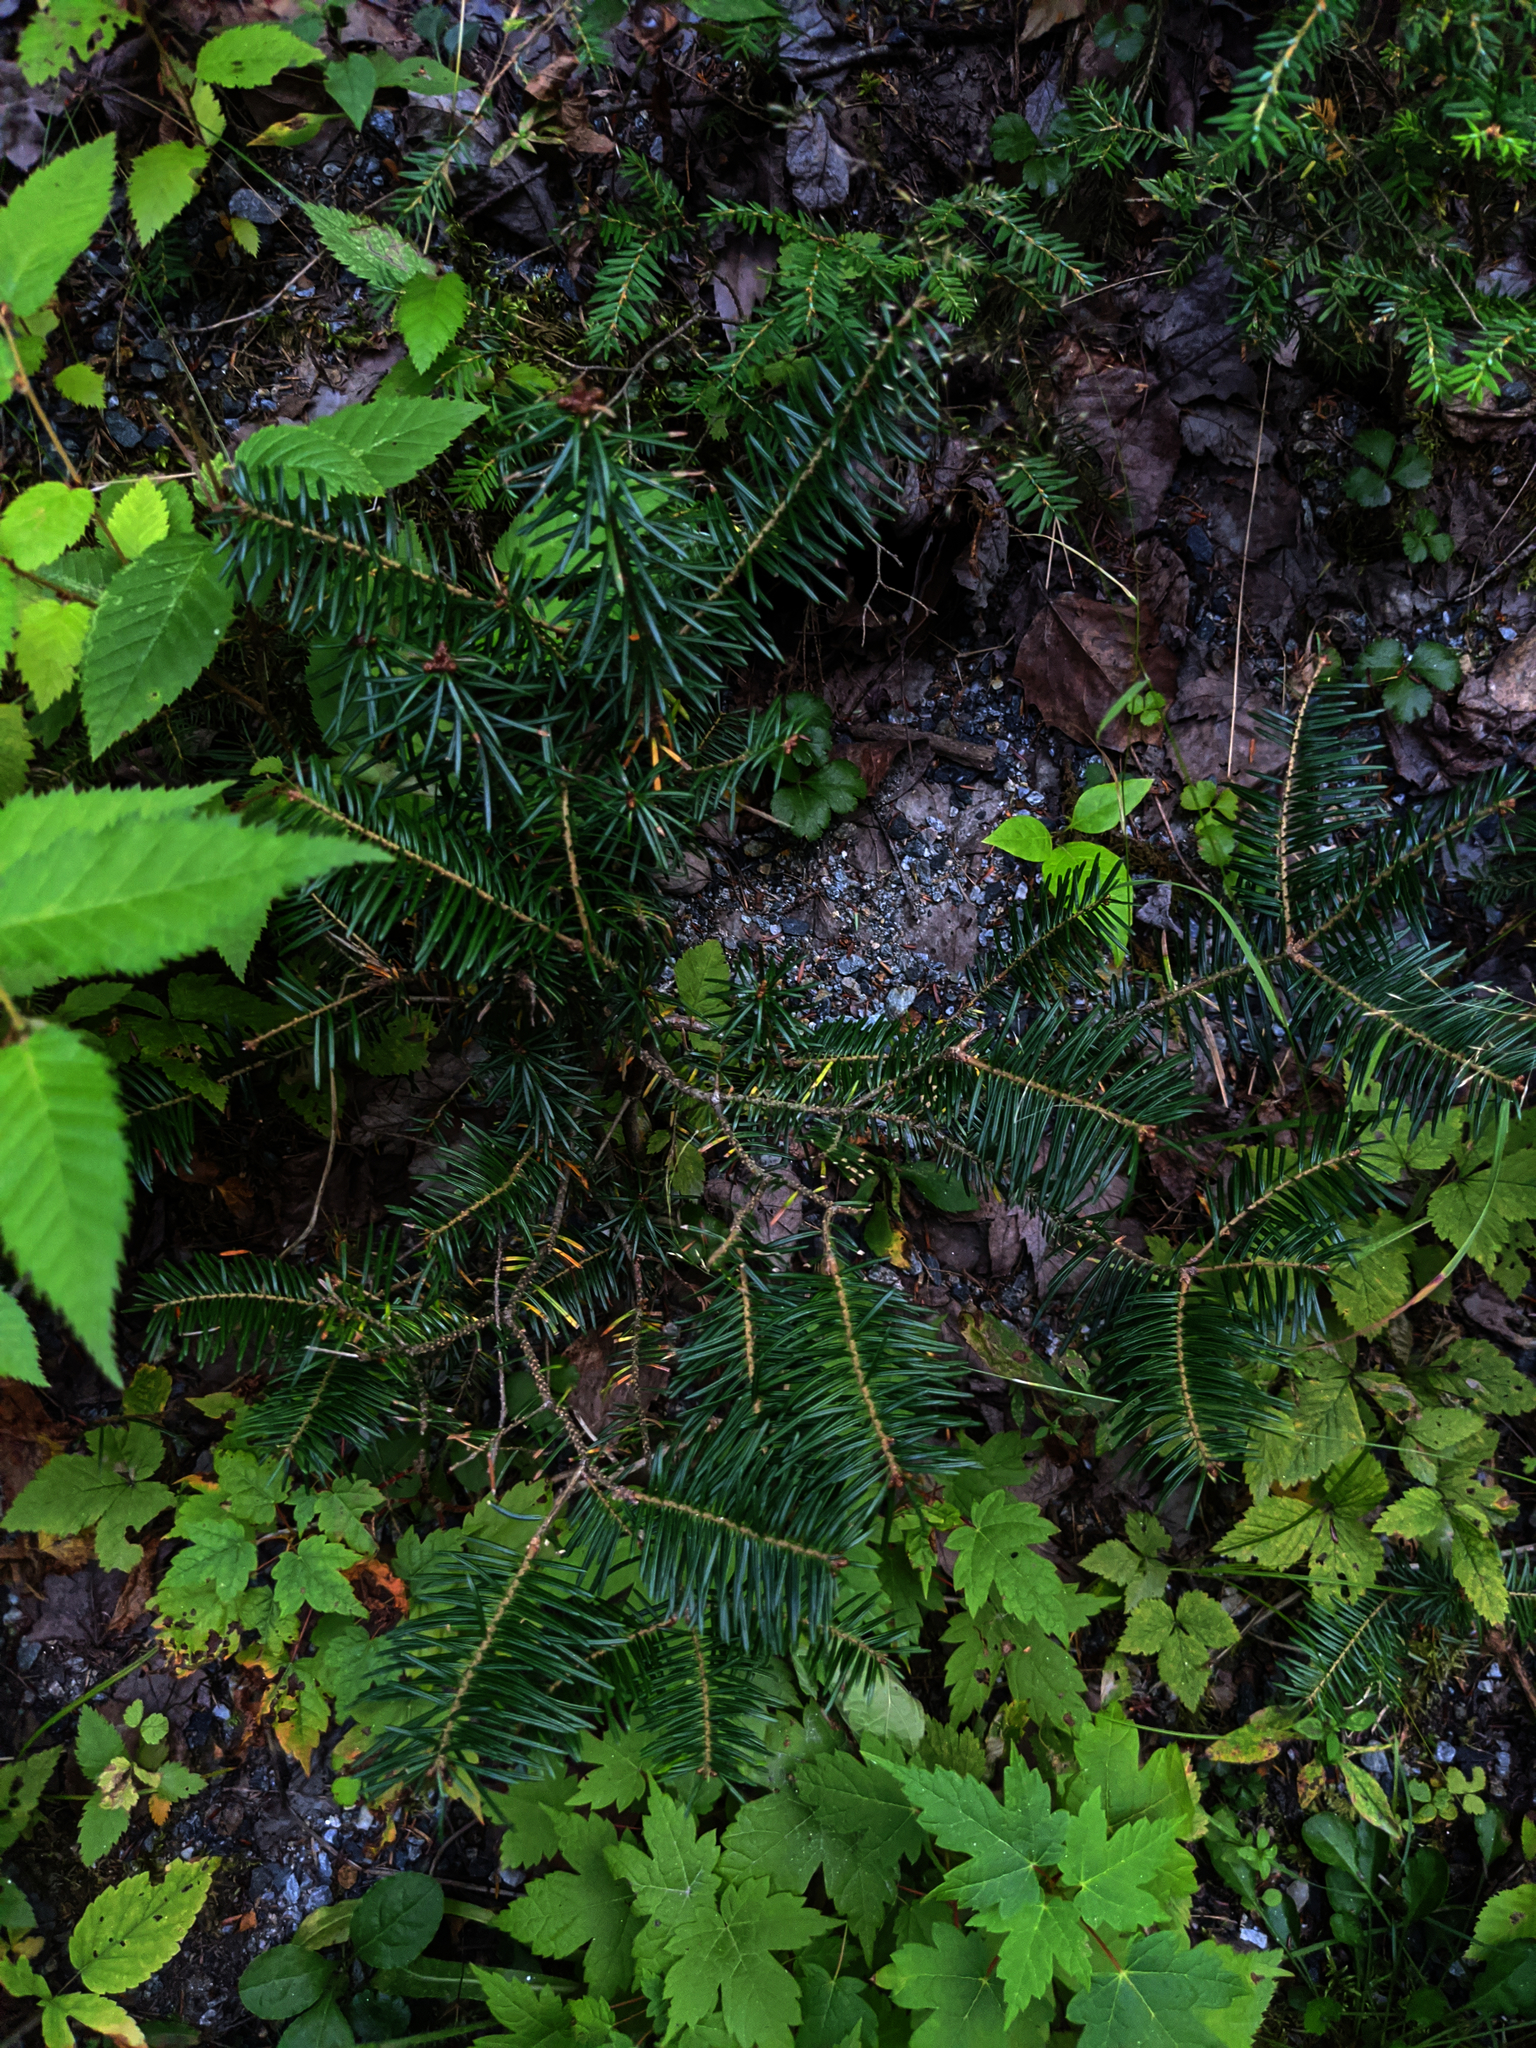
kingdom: Plantae
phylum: Tracheophyta
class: Pinopsida
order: Pinales
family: Pinaceae
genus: Abies
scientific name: Abies balsamea
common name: Balsam fir
